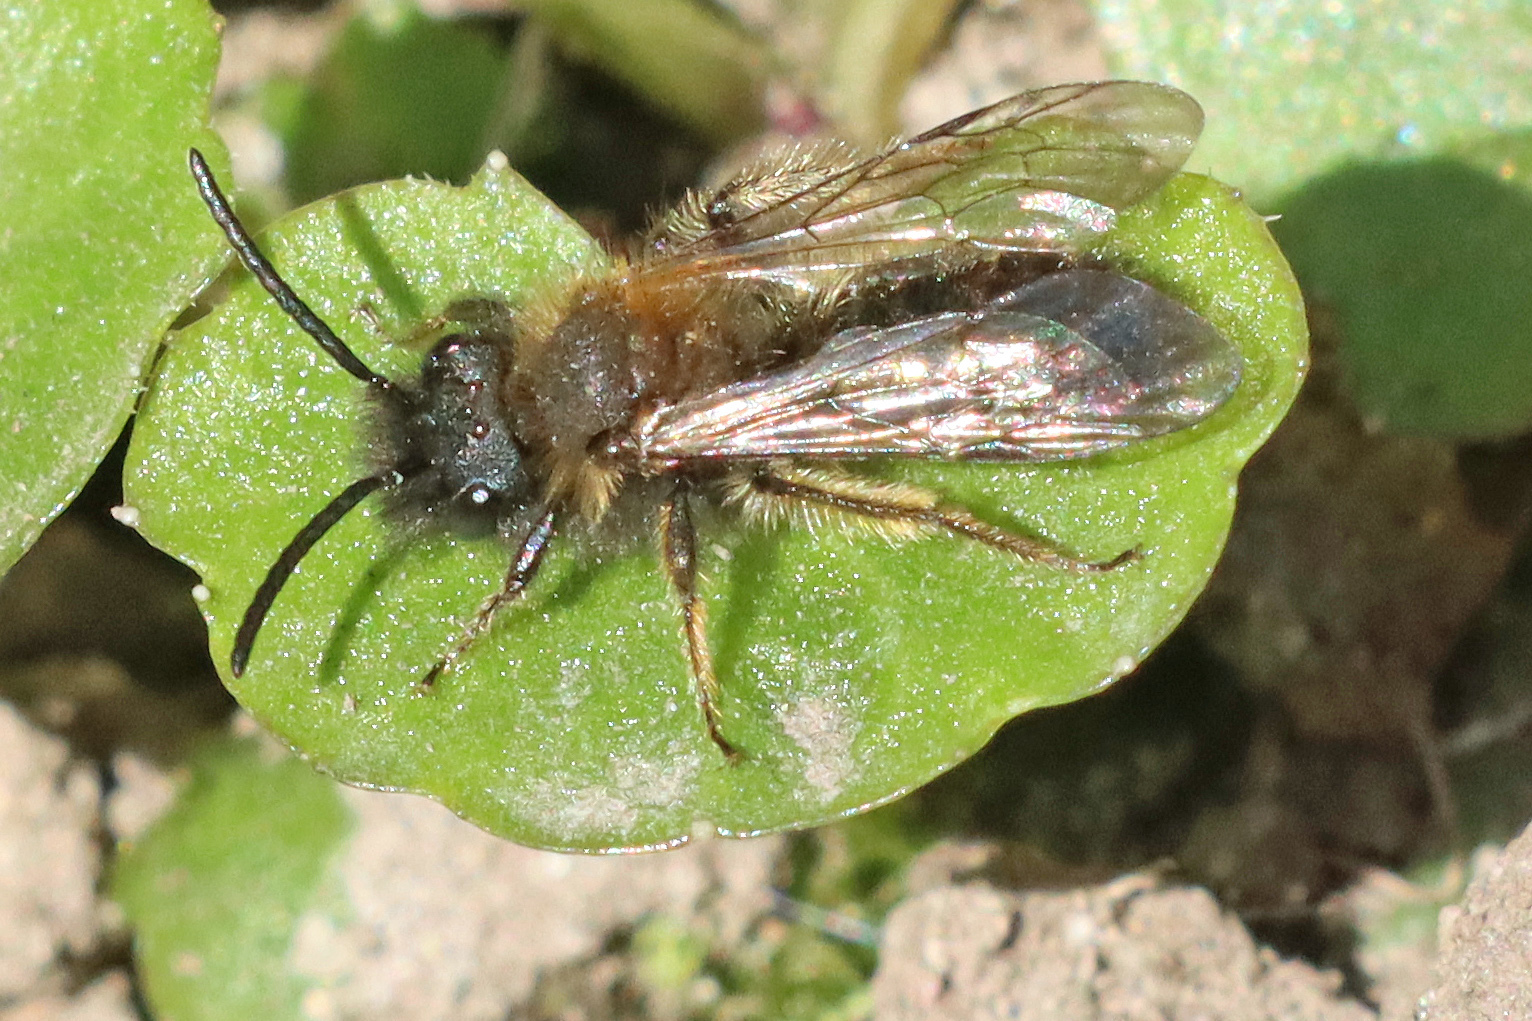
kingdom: Animalia
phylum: Arthropoda
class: Insecta
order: Hymenoptera
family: Andrenidae
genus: Andrena
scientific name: Andrena bicolor
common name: Gwynne's mining bee
